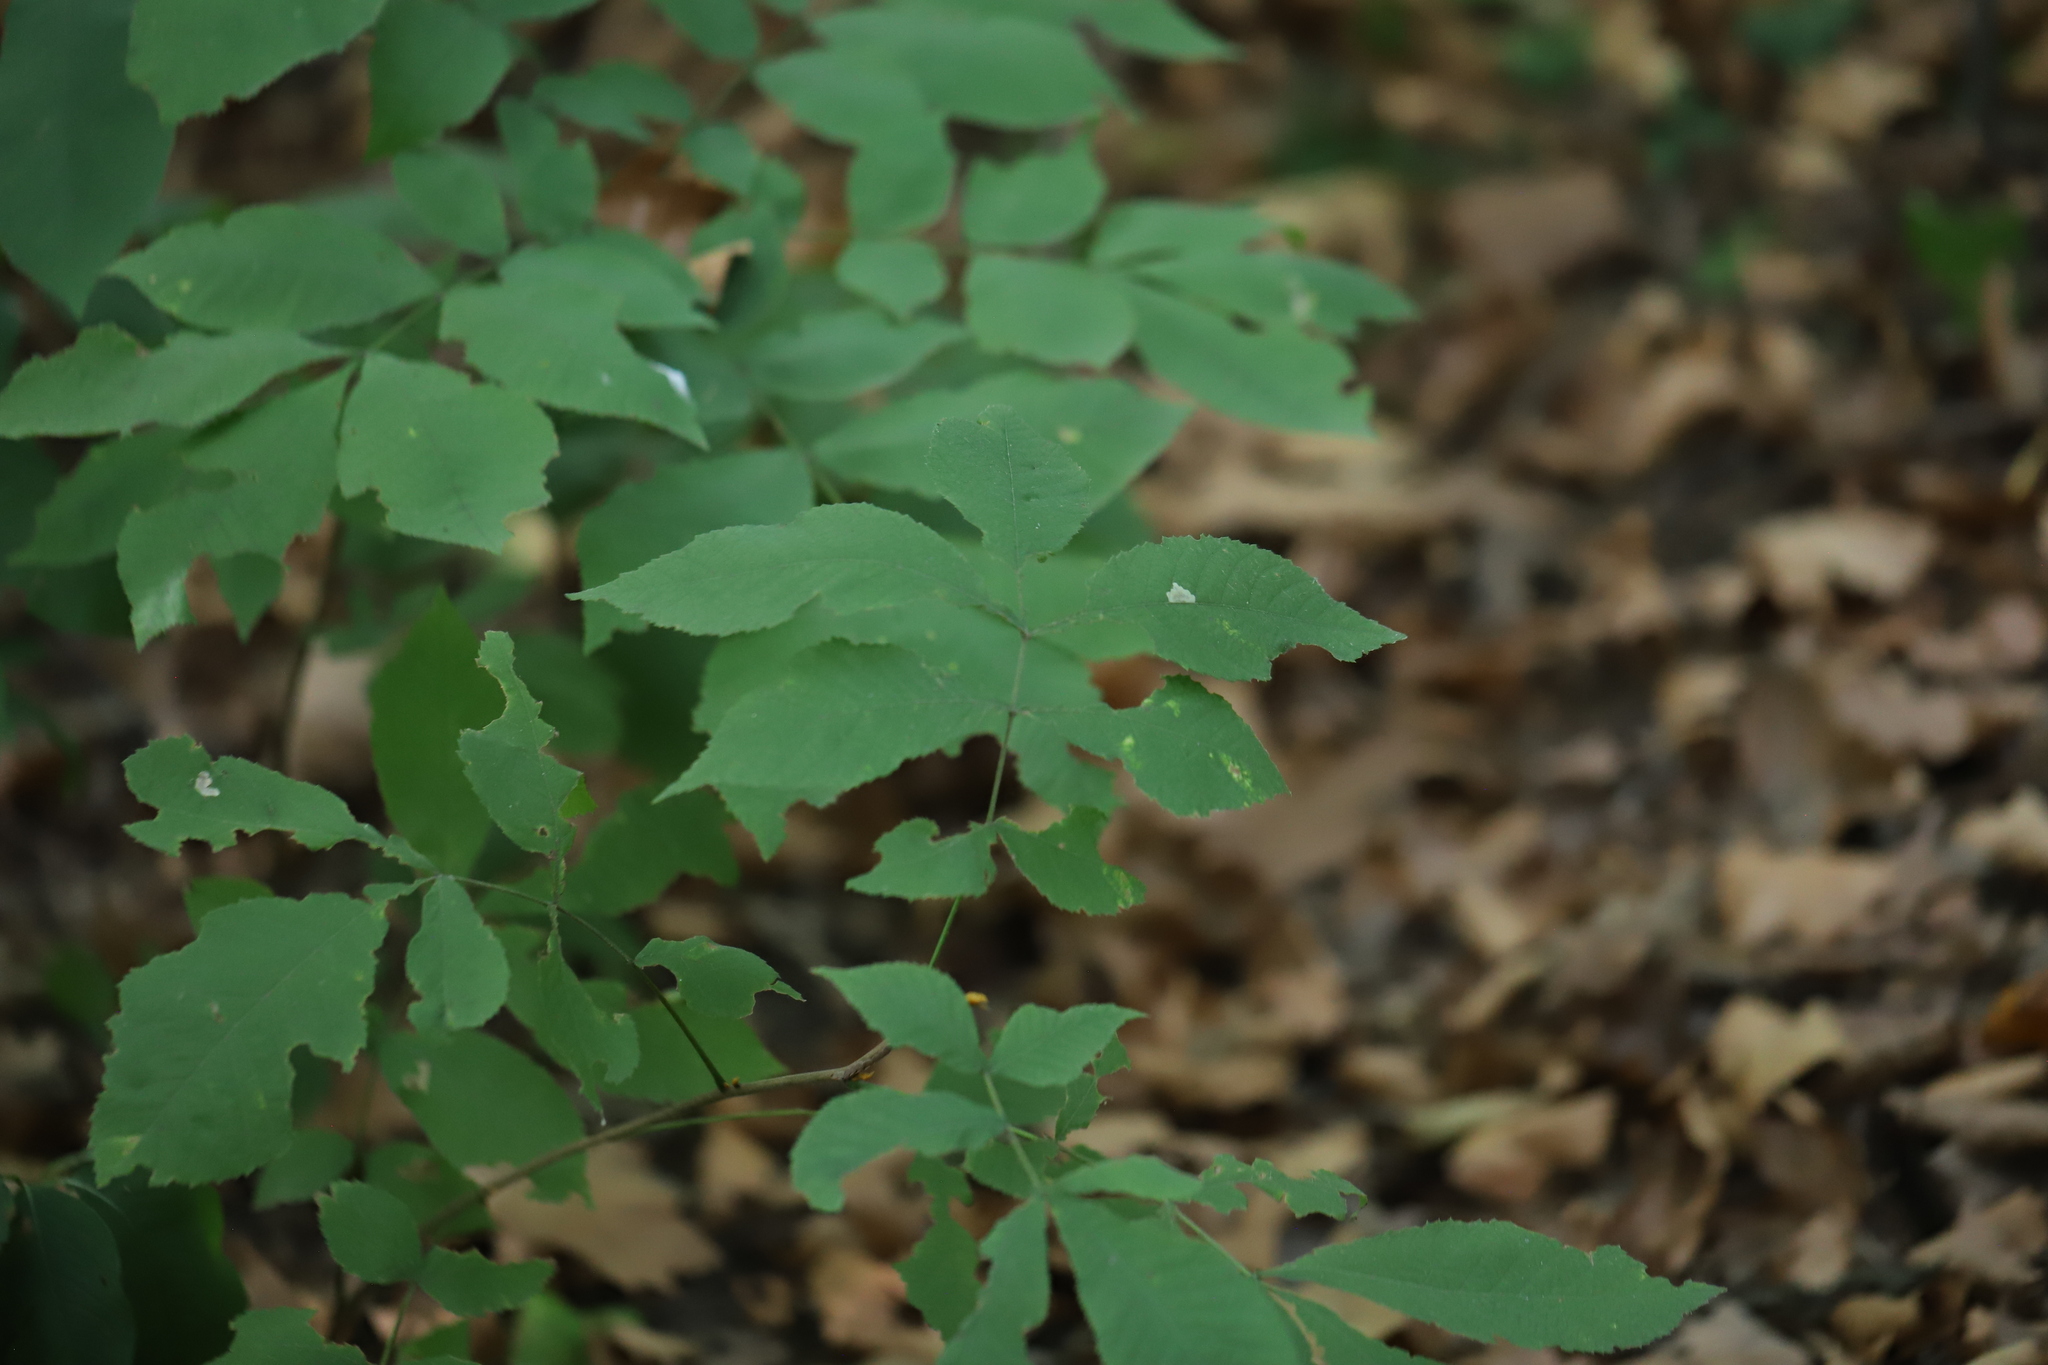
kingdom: Plantae
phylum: Tracheophyta
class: Magnoliopsida
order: Fagales
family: Juglandaceae
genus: Carya
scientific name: Carya cordiformis
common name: Bitternut hickory
